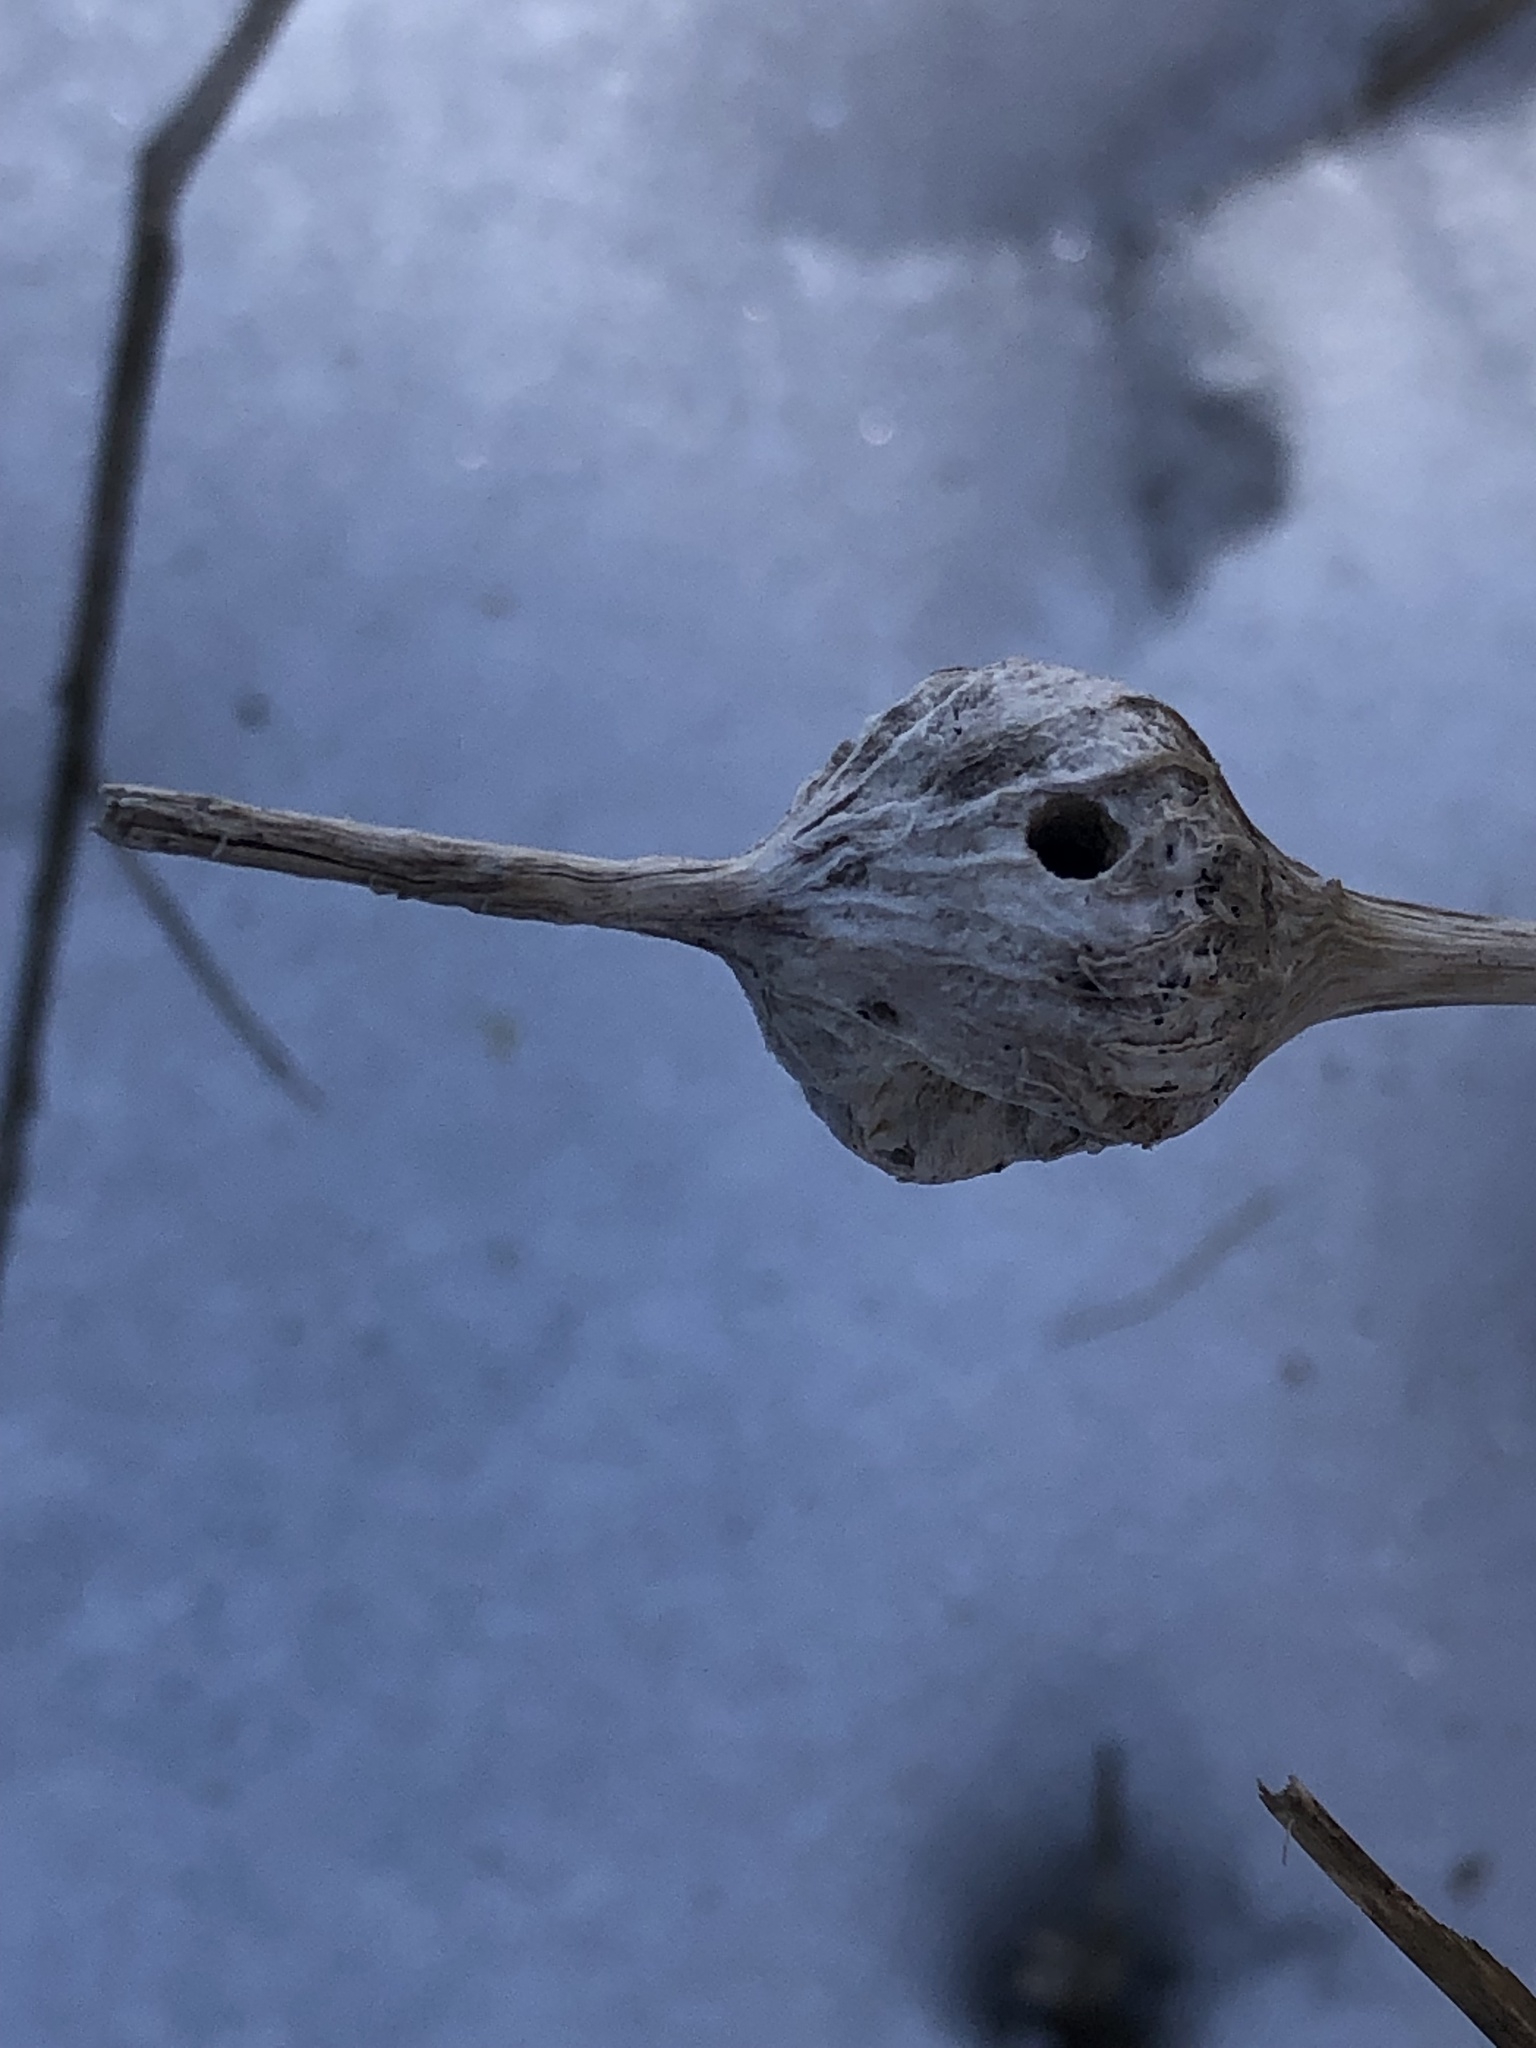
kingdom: Animalia
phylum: Arthropoda
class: Insecta
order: Diptera
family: Tephritidae
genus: Eurosta
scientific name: Eurosta solidaginis
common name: Goldenrod gall fly
